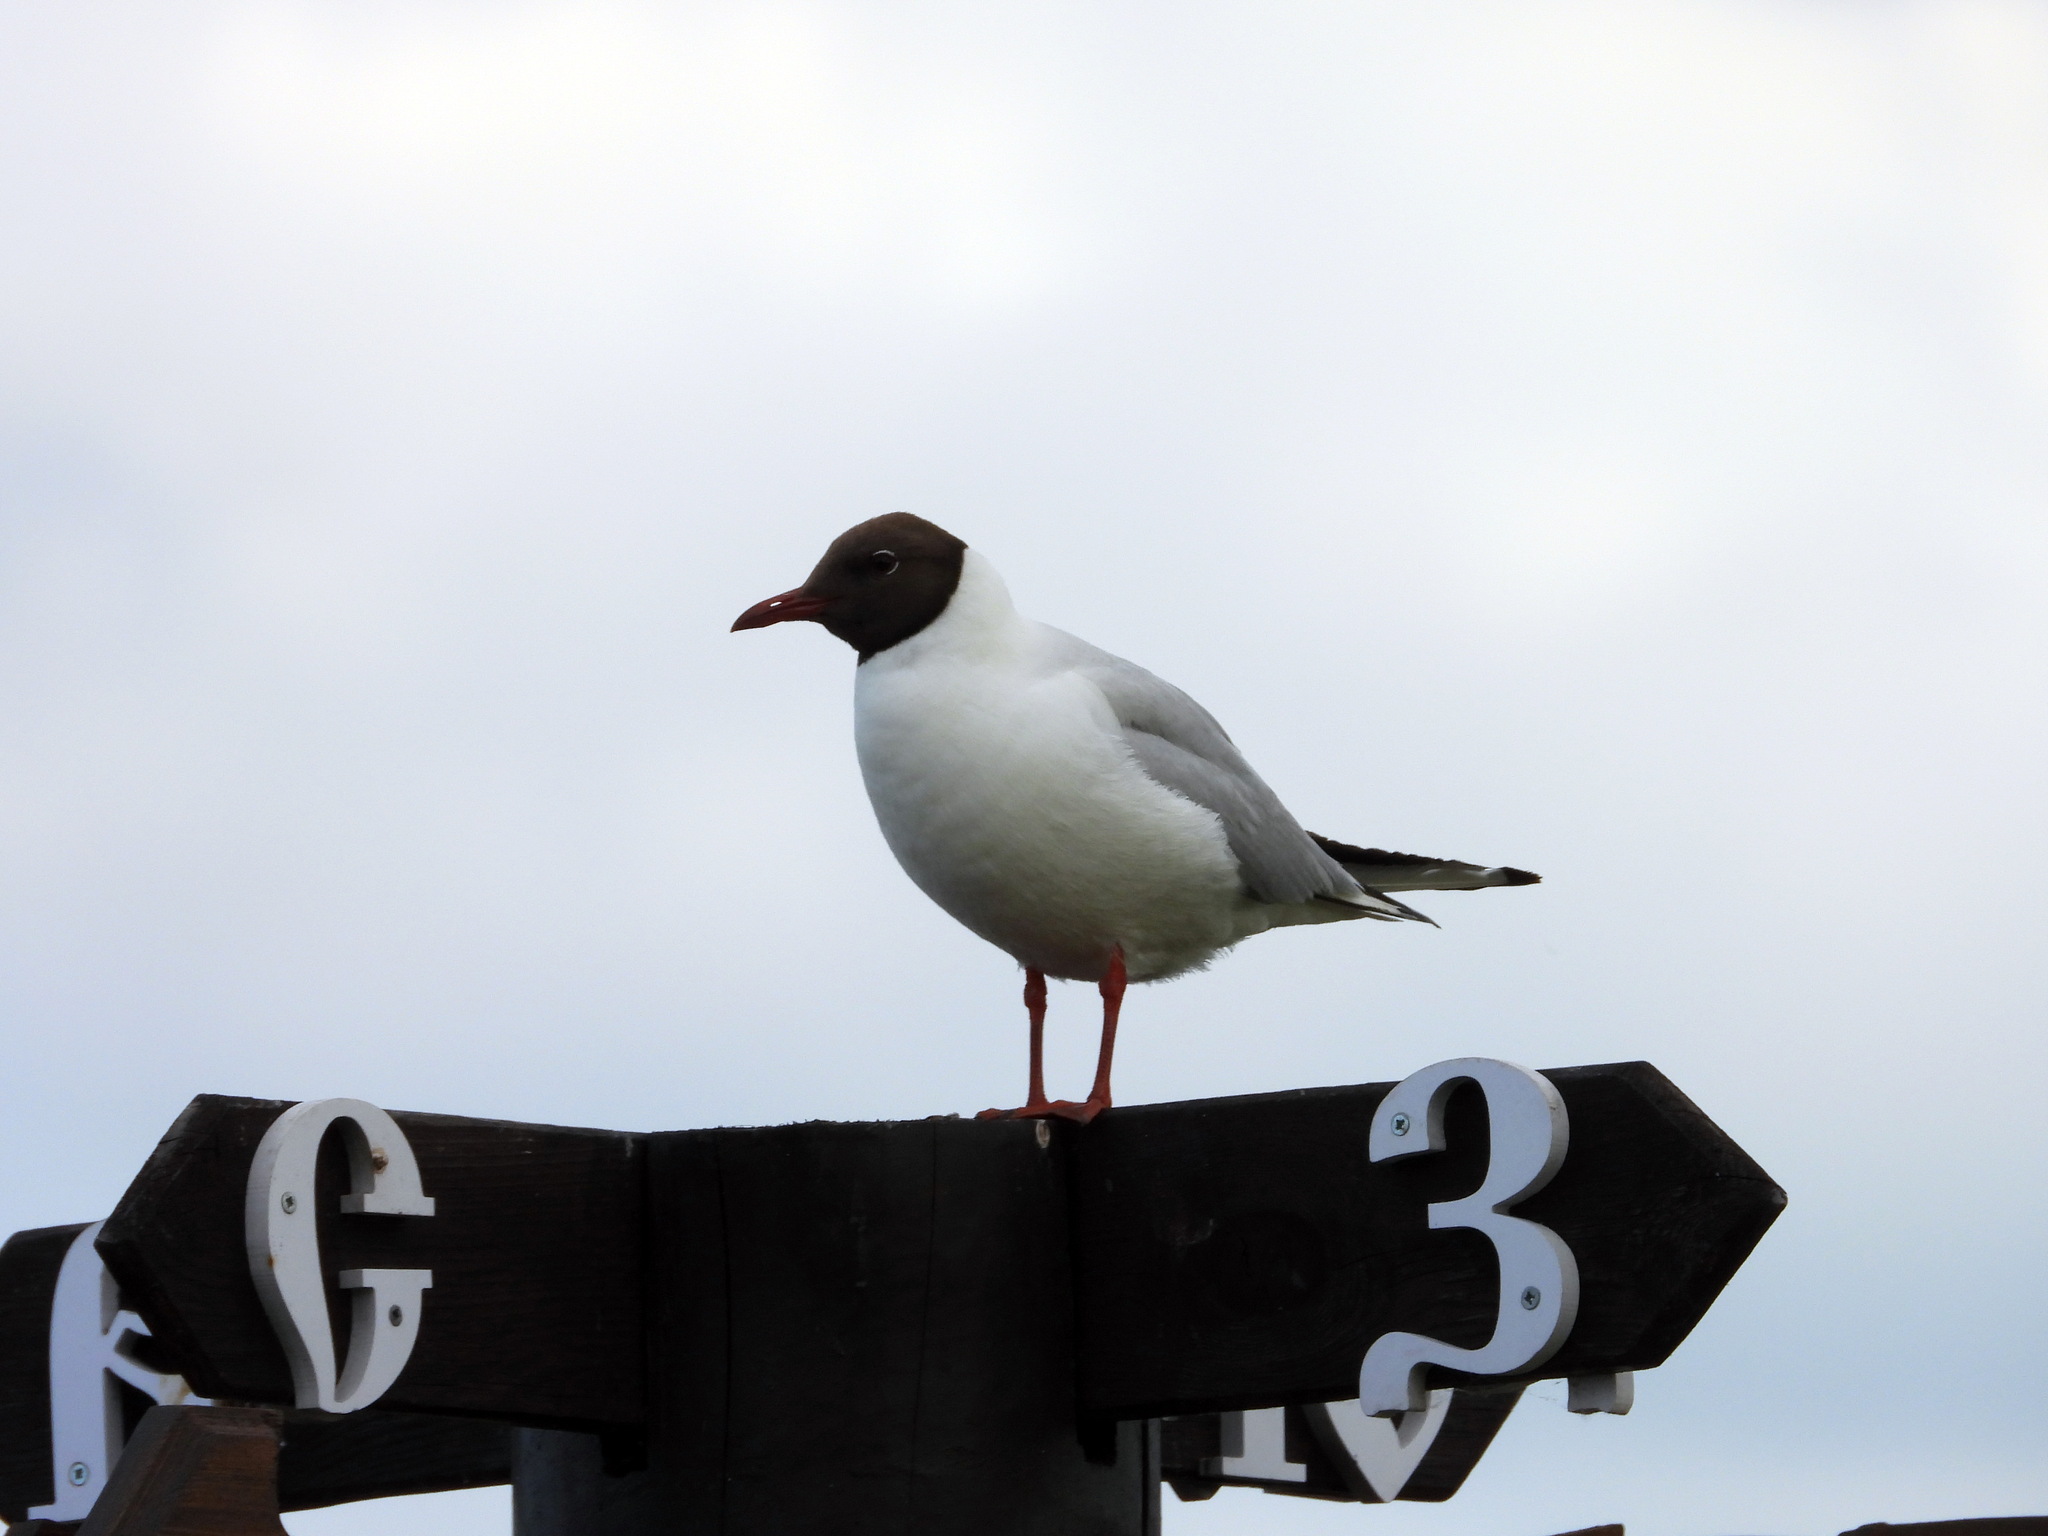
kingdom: Animalia
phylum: Chordata
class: Aves
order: Charadriiformes
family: Laridae
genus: Chroicocephalus
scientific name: Chroicocephalus ridibundus
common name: Black-headed gull
